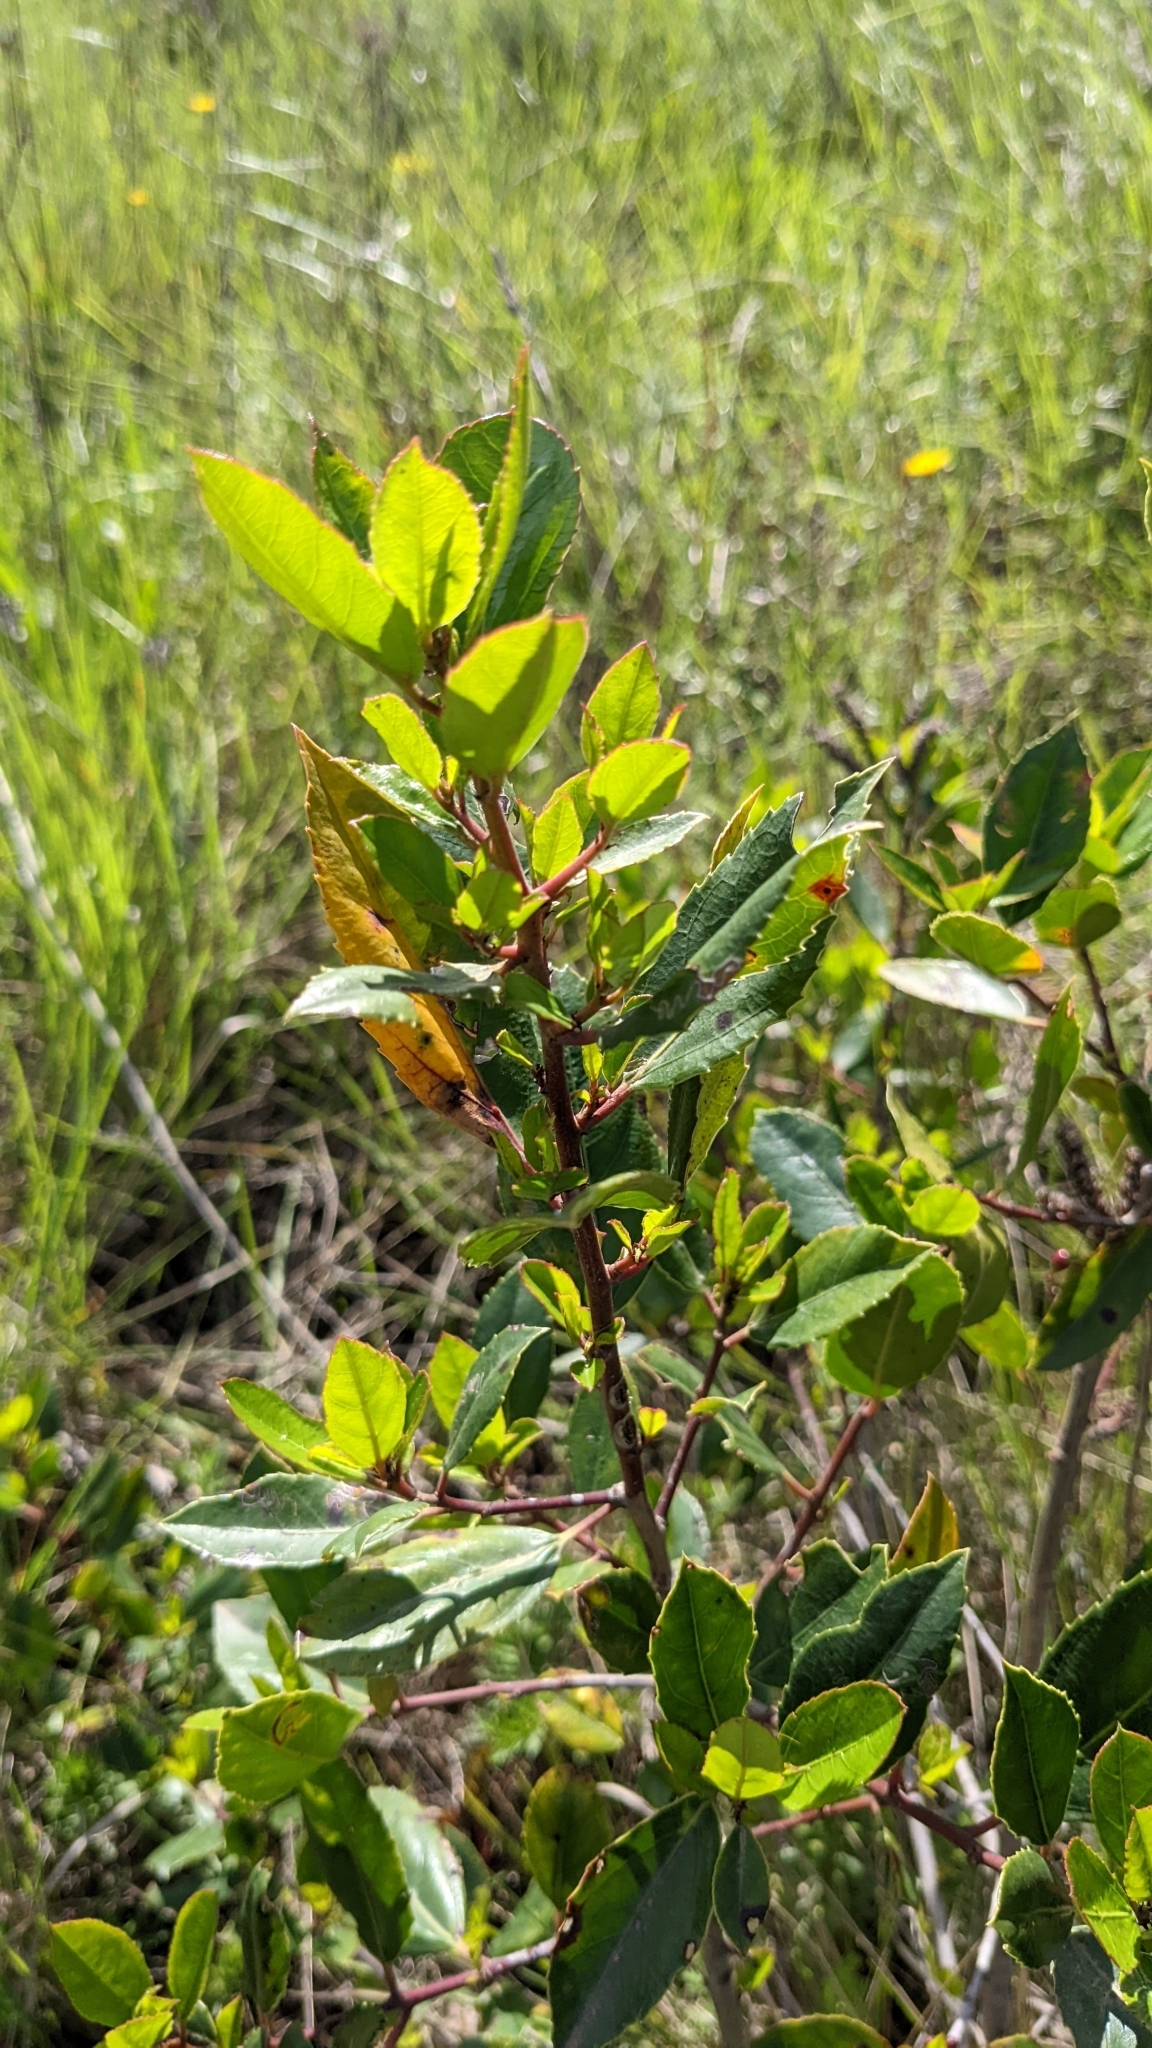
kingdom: Plantae
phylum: Tracheophyta
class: Magnoliopsida
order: Ericales
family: Ericaceae
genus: Arbutus
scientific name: Arbutus unedo
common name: Strawberry-tree
